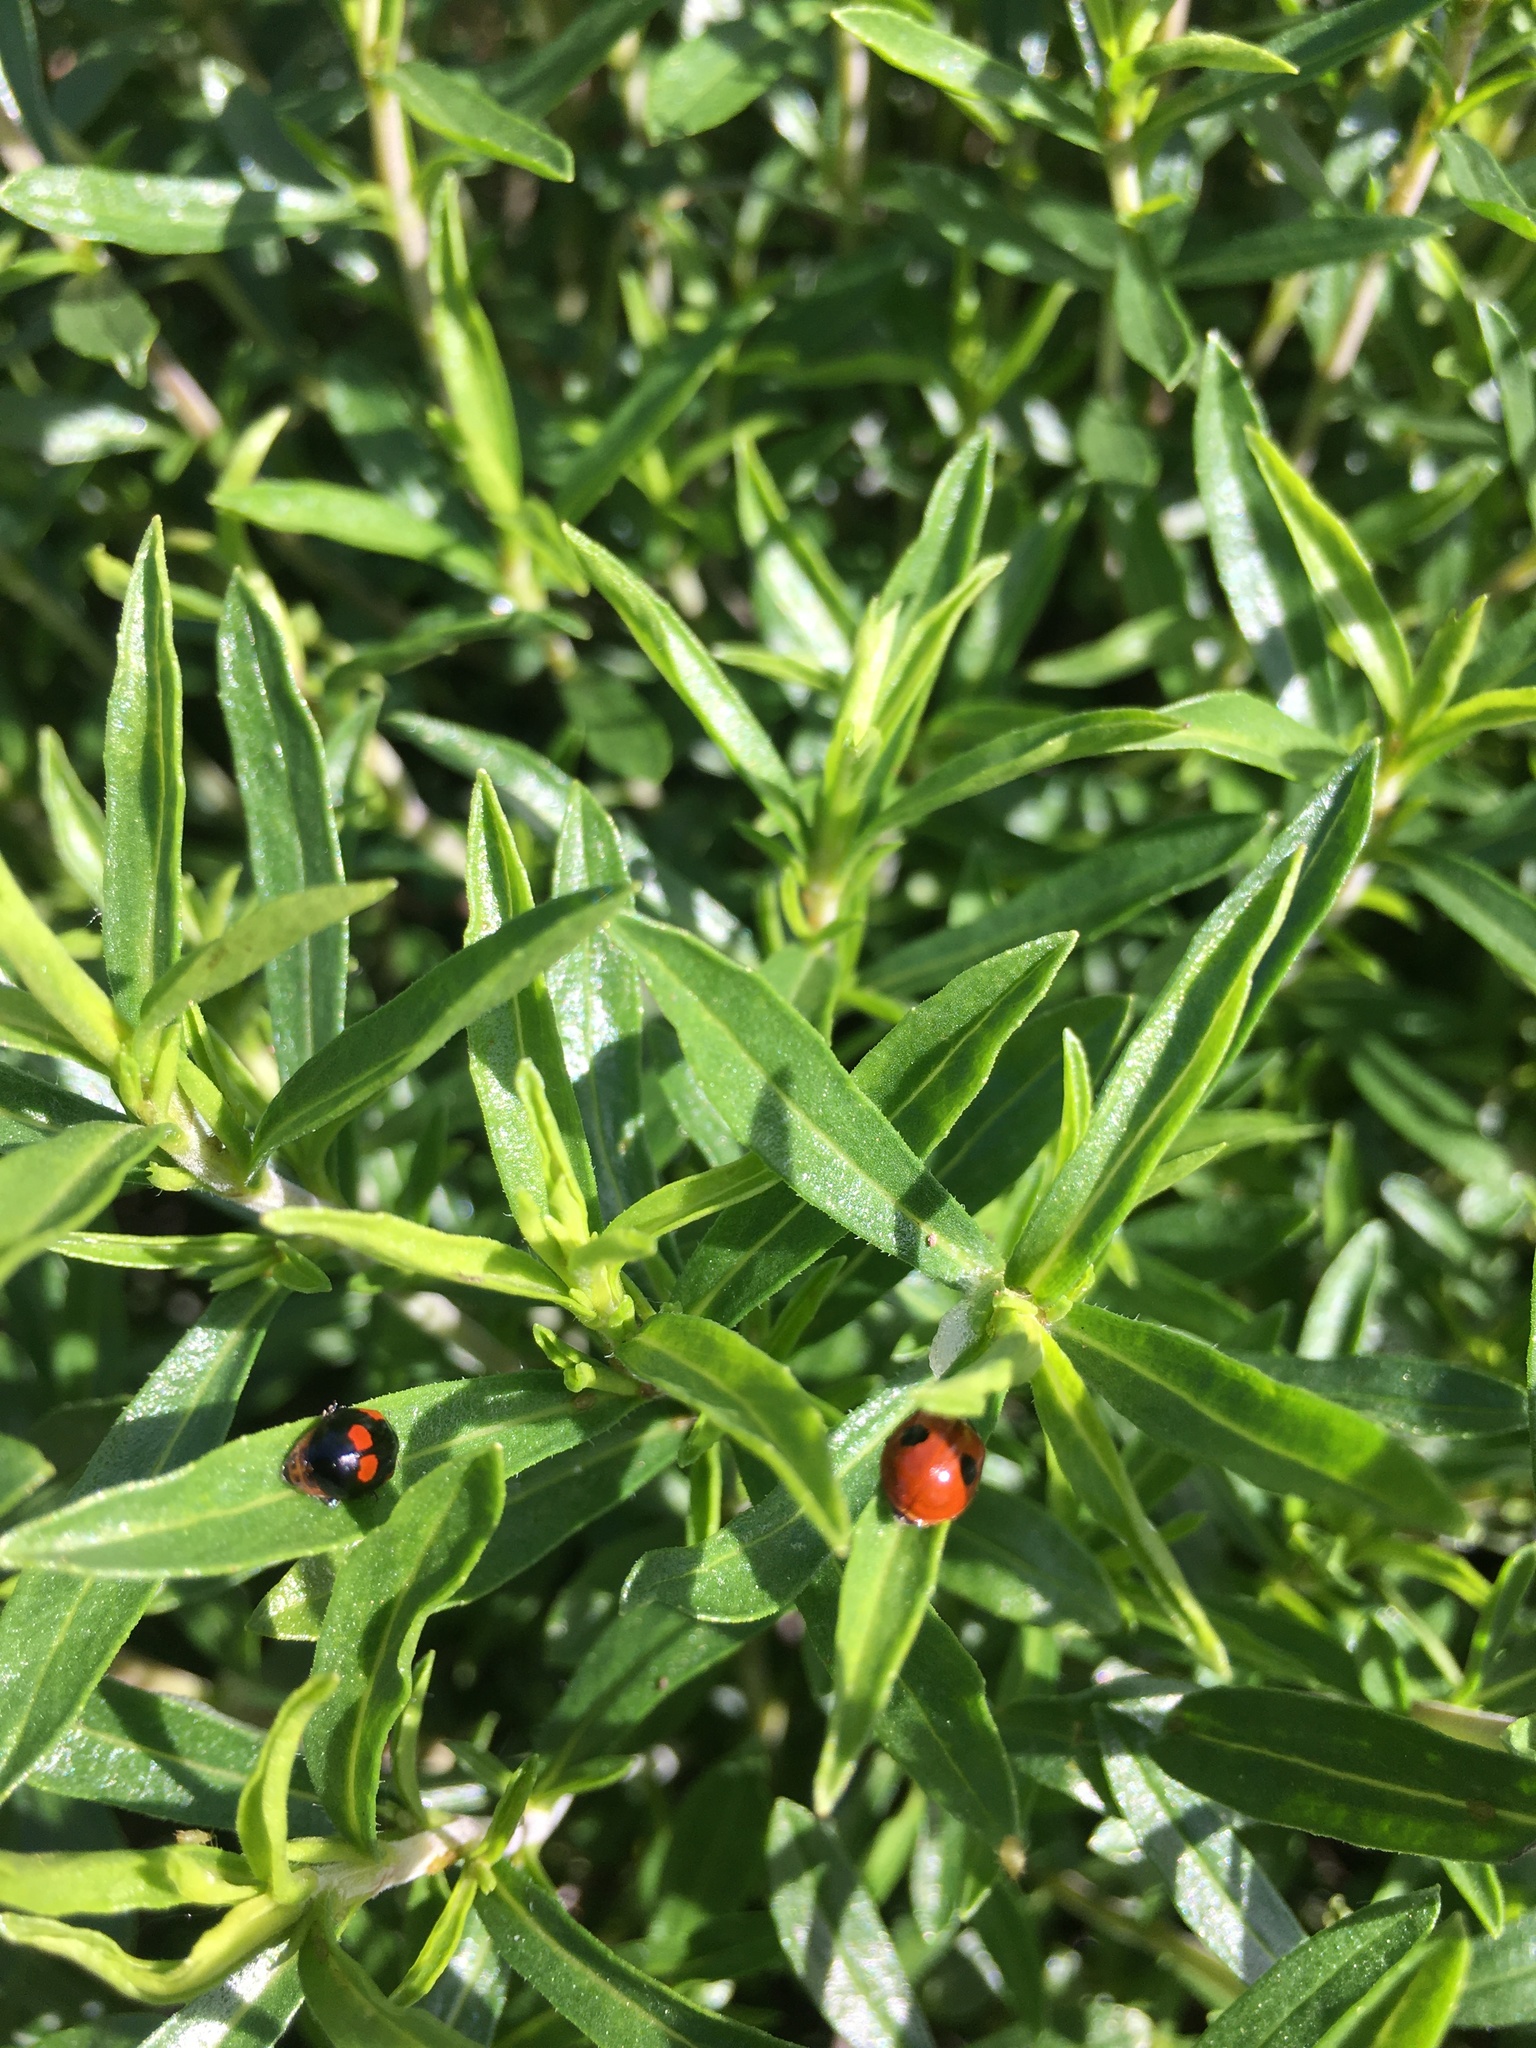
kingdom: Animalia
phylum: Arthropoda
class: Insecta
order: Coleoptera
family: Coccinellidae
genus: Adalia
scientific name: Adalia bipunctata
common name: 2-spot ladybird
